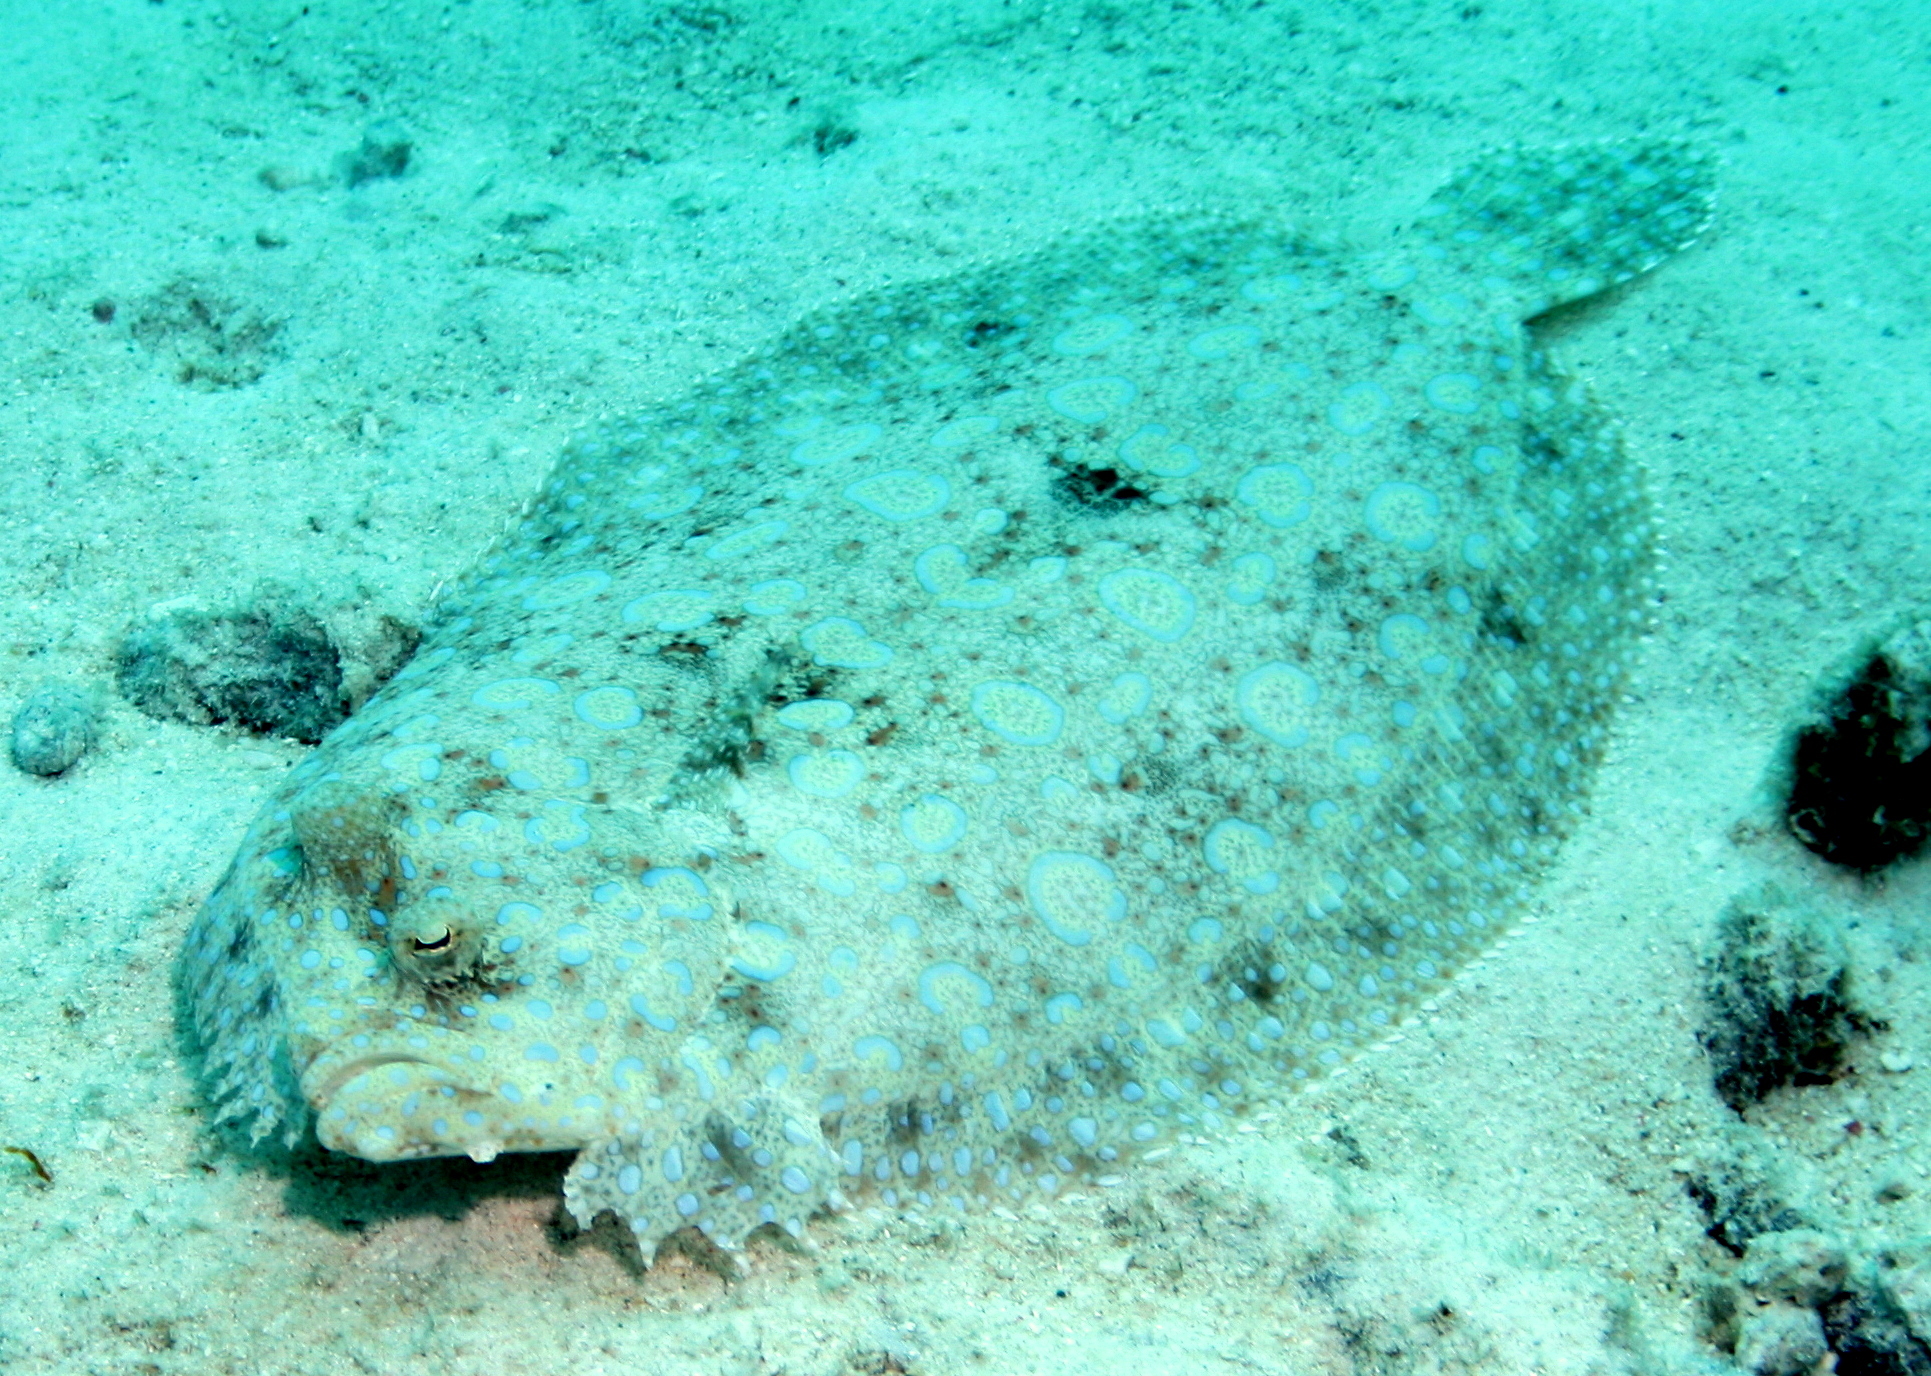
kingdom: Animalia
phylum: Chordata
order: Pleuronectiformes
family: Bothidae
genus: Bothus
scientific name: Bothus lunatus
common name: Peacock flounder
